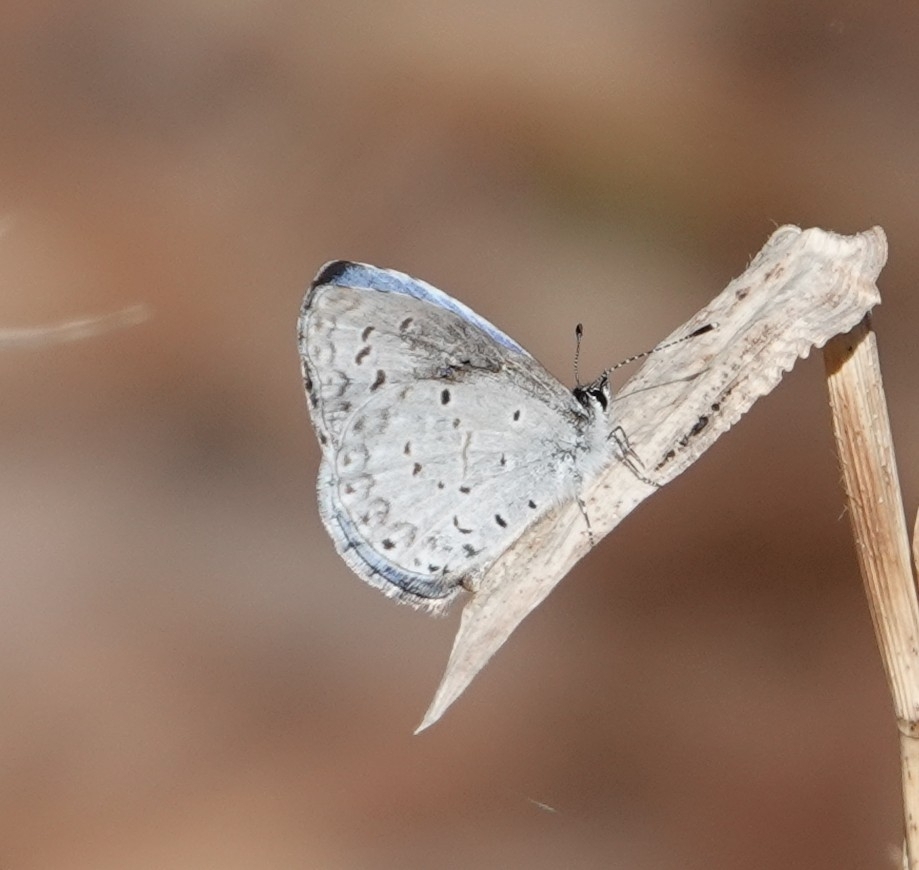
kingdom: Animalia
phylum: Arthropoda
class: Insecta
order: Lepidoptera
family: Lycaenidae
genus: Celastrina
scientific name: Celastrina ladon
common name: Spring azure
